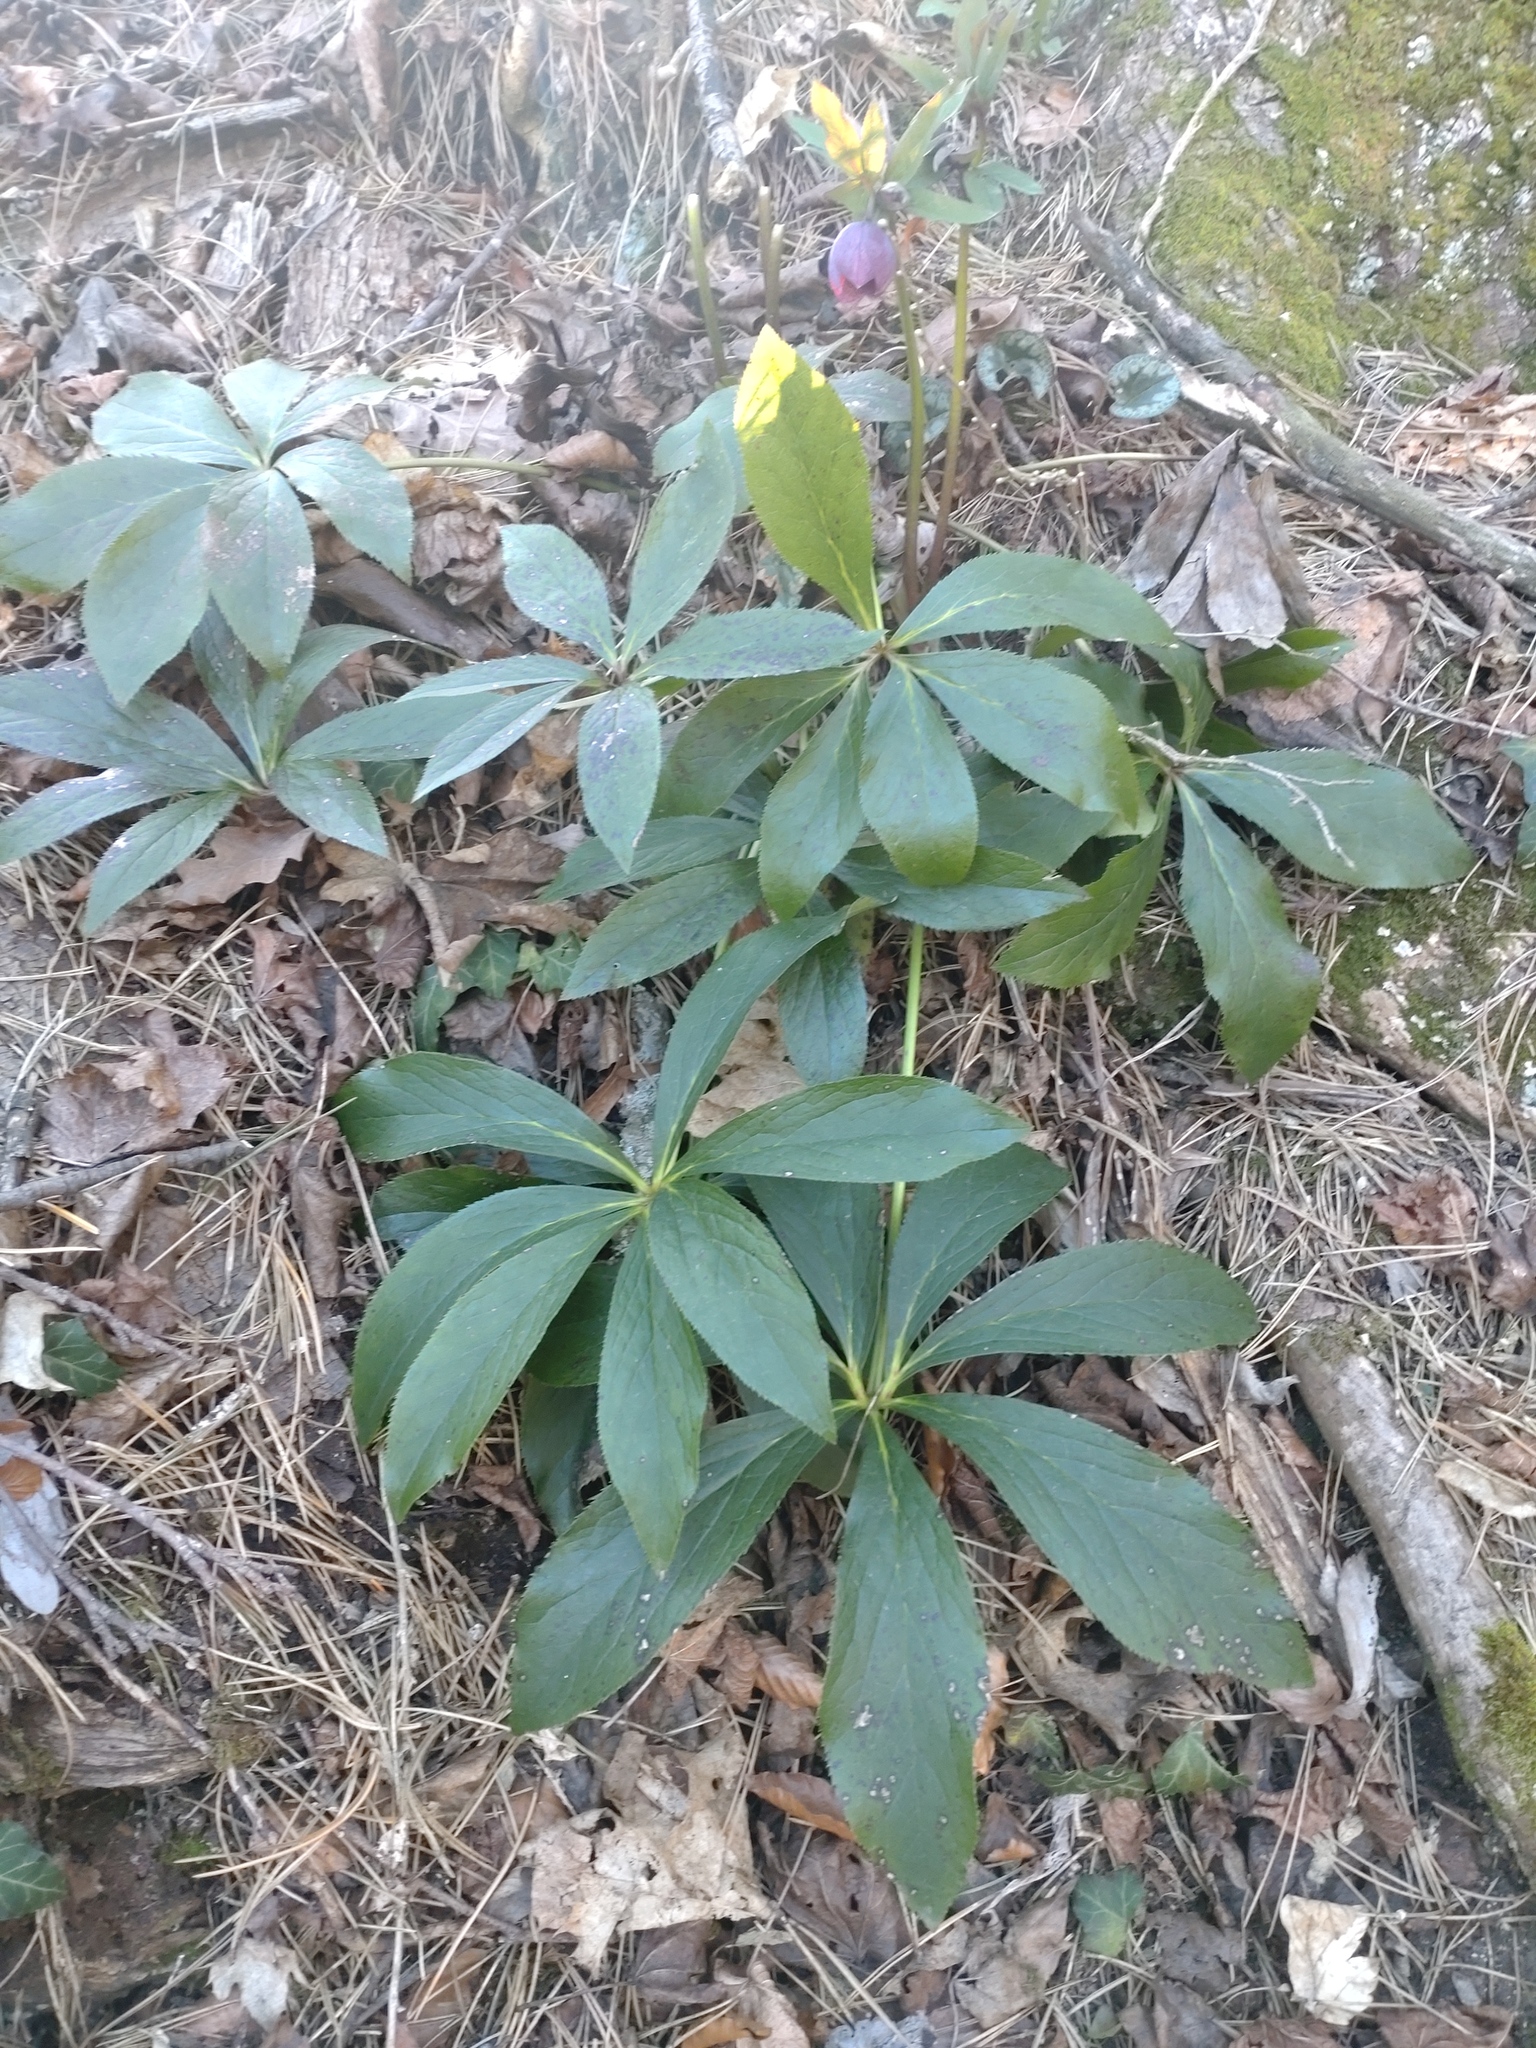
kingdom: Plantae
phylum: Tracheophyta
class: Magnoliopsida
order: Ranunculales
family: Ranunculaceae
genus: Helleborus
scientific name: Helleborus hybridus
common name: Hybrid lenten-rose
